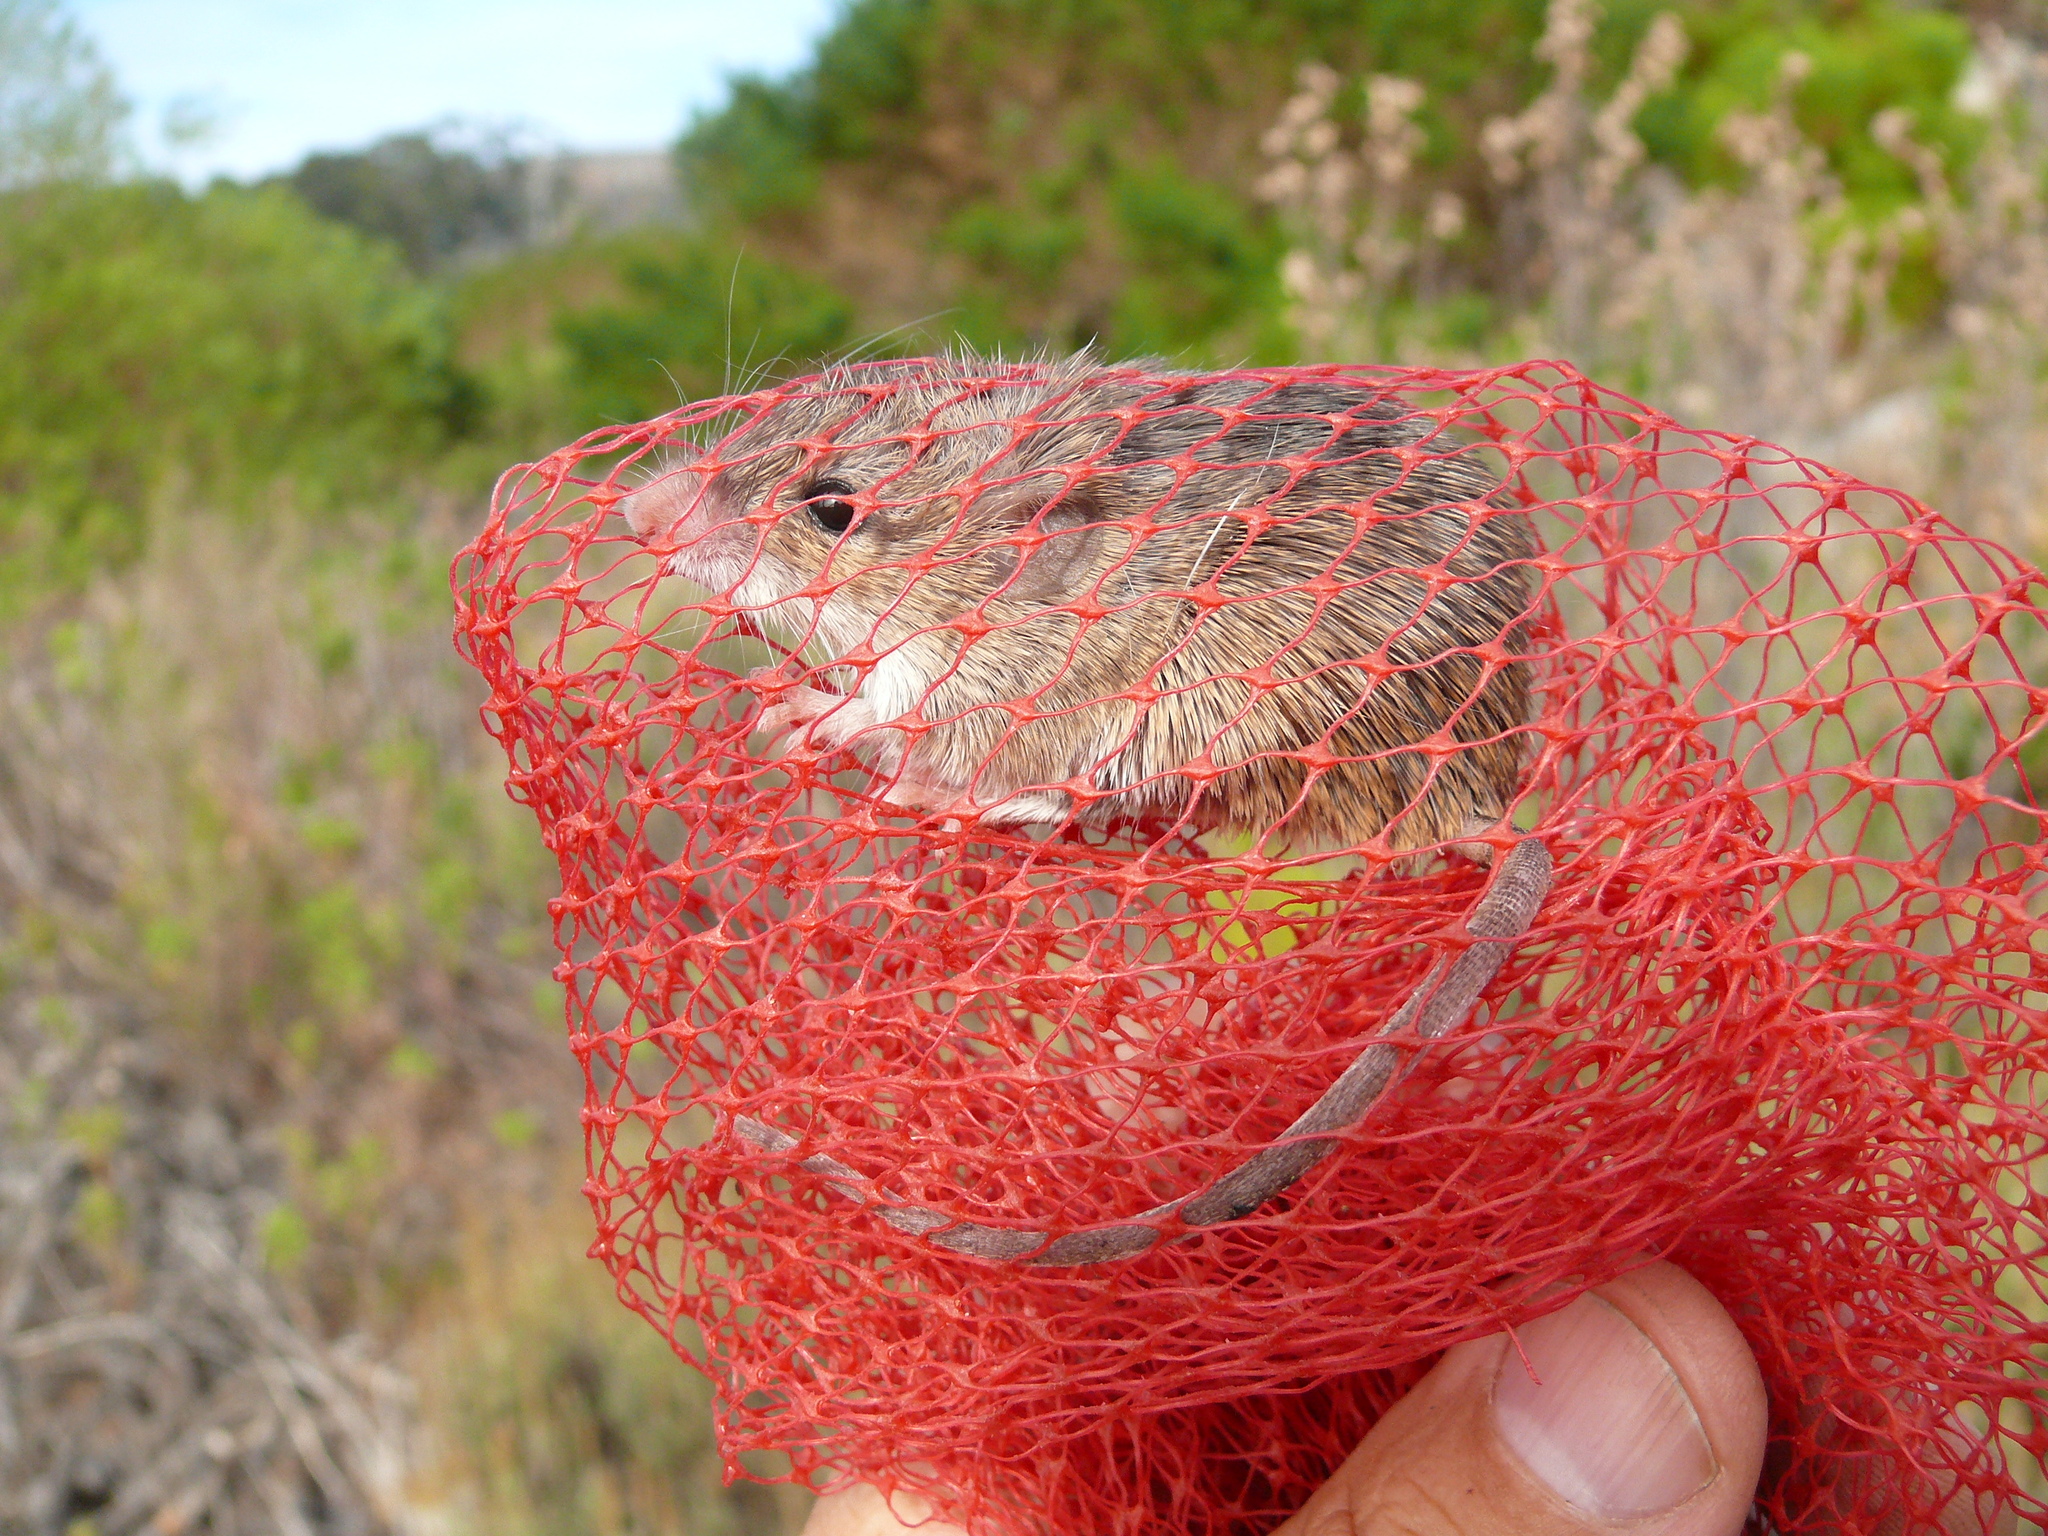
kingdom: Animalia
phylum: Chordata
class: Mammalia
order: Rodentia
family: Muridae
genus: Acomys
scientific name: Acomys subspinosus
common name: Cape spiny mouse
